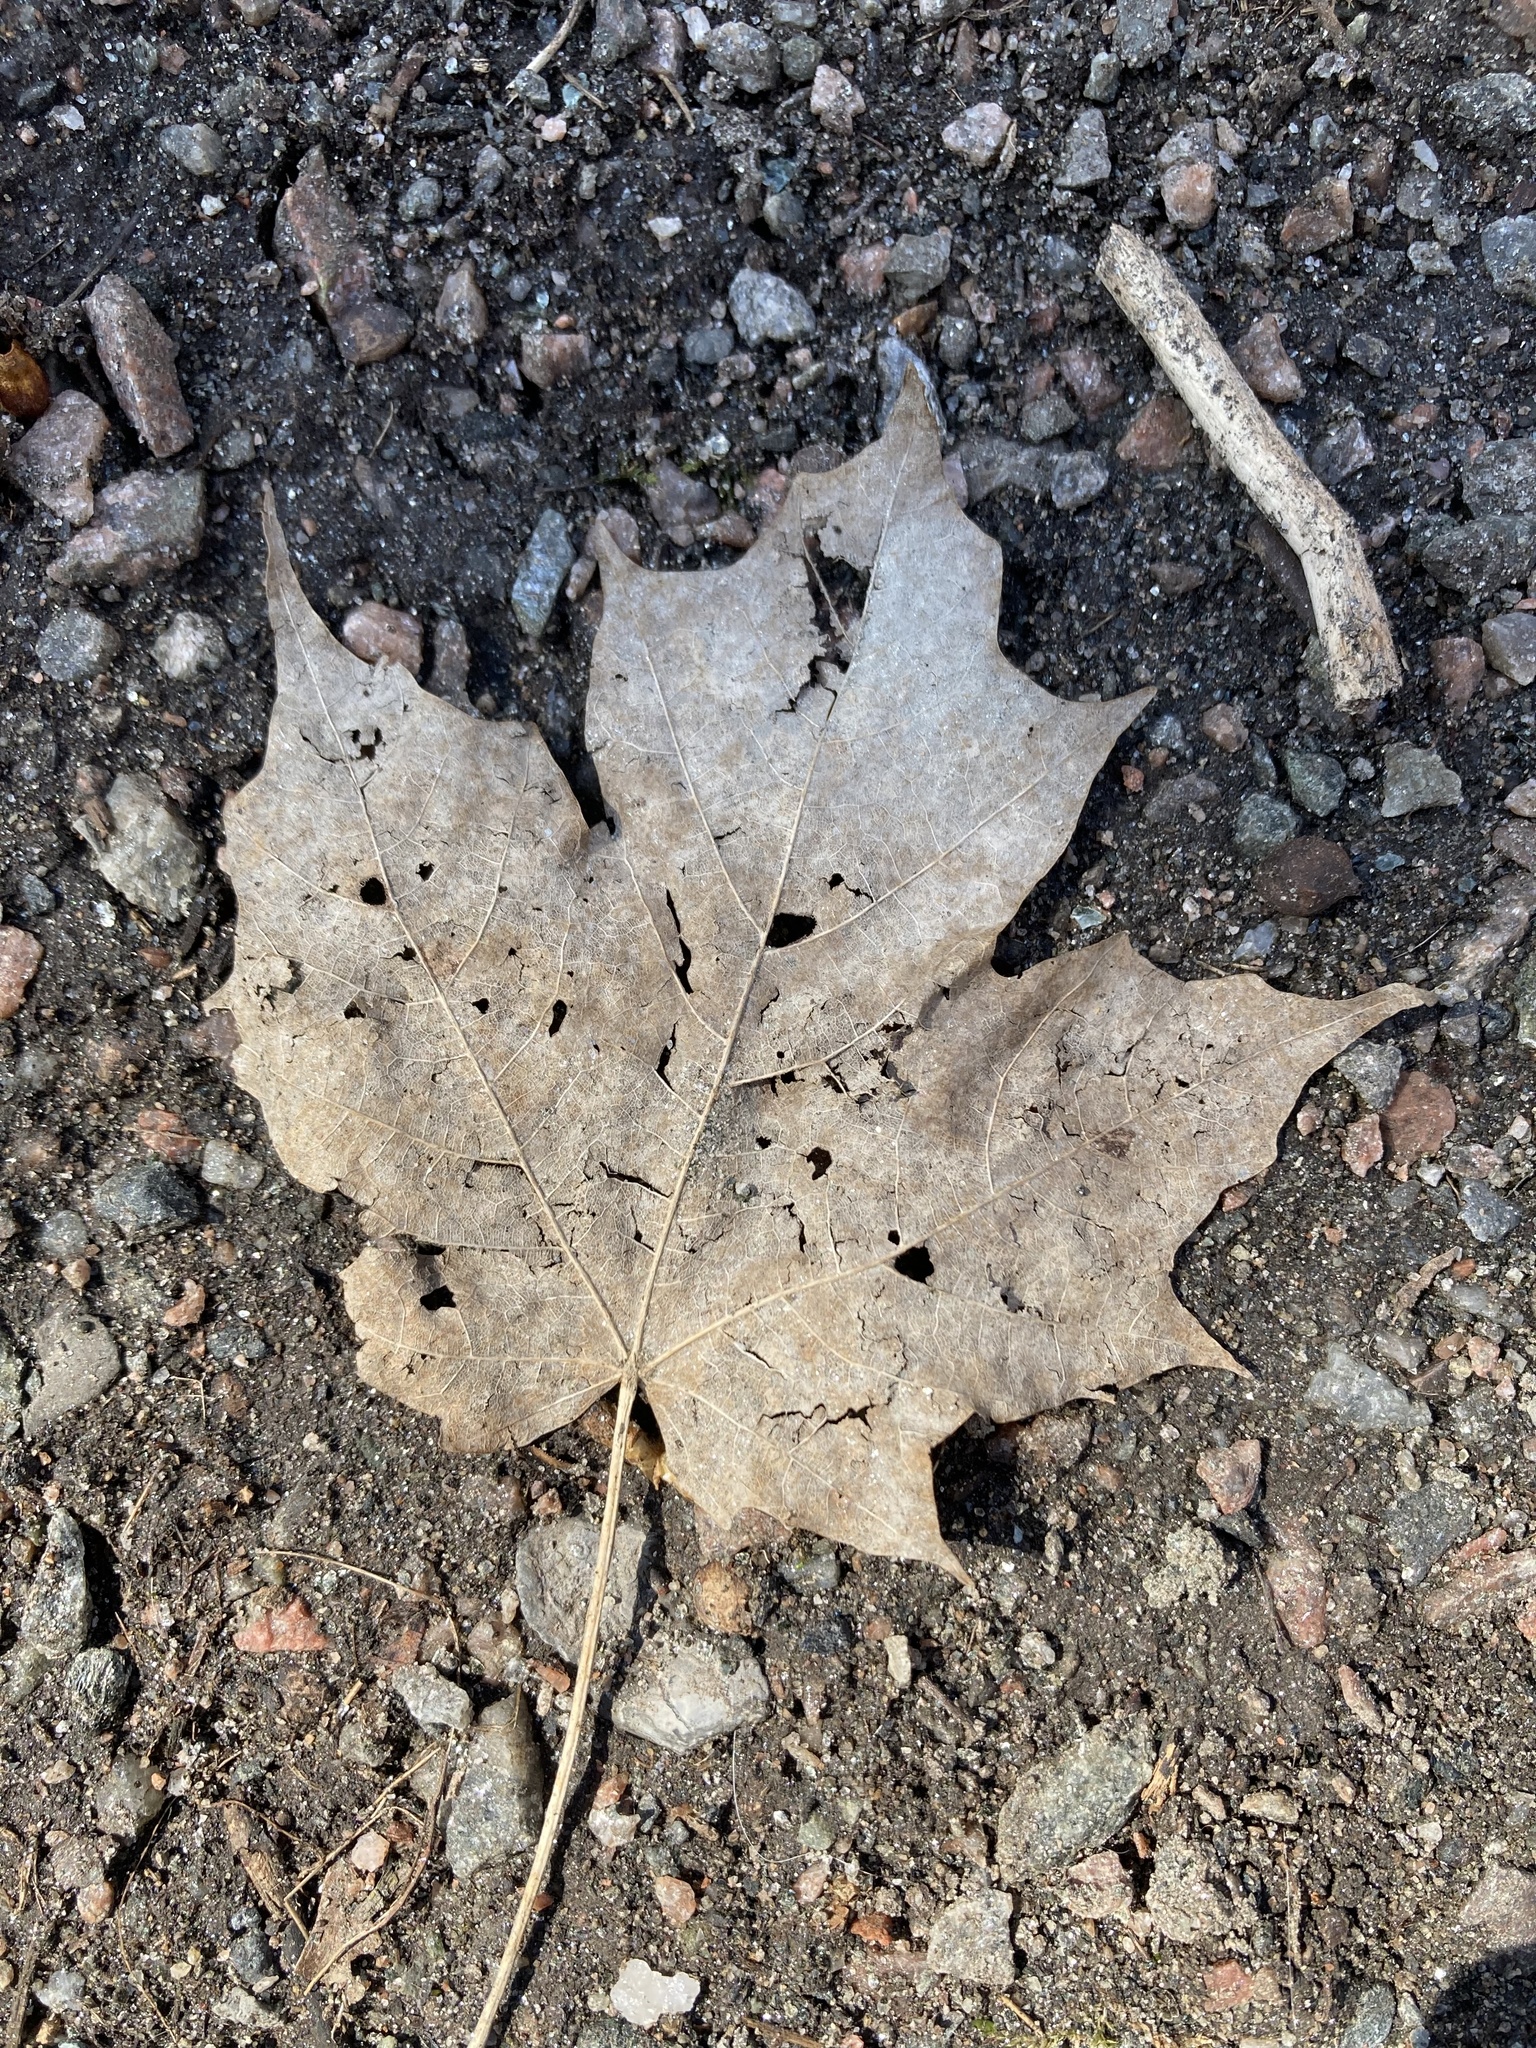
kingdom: Plantae
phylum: Tracheophyta
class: Magnoliopsida
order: Sapindales
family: Sapindaceae
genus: Acer
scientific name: Acer saccharum
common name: Sugar maple
